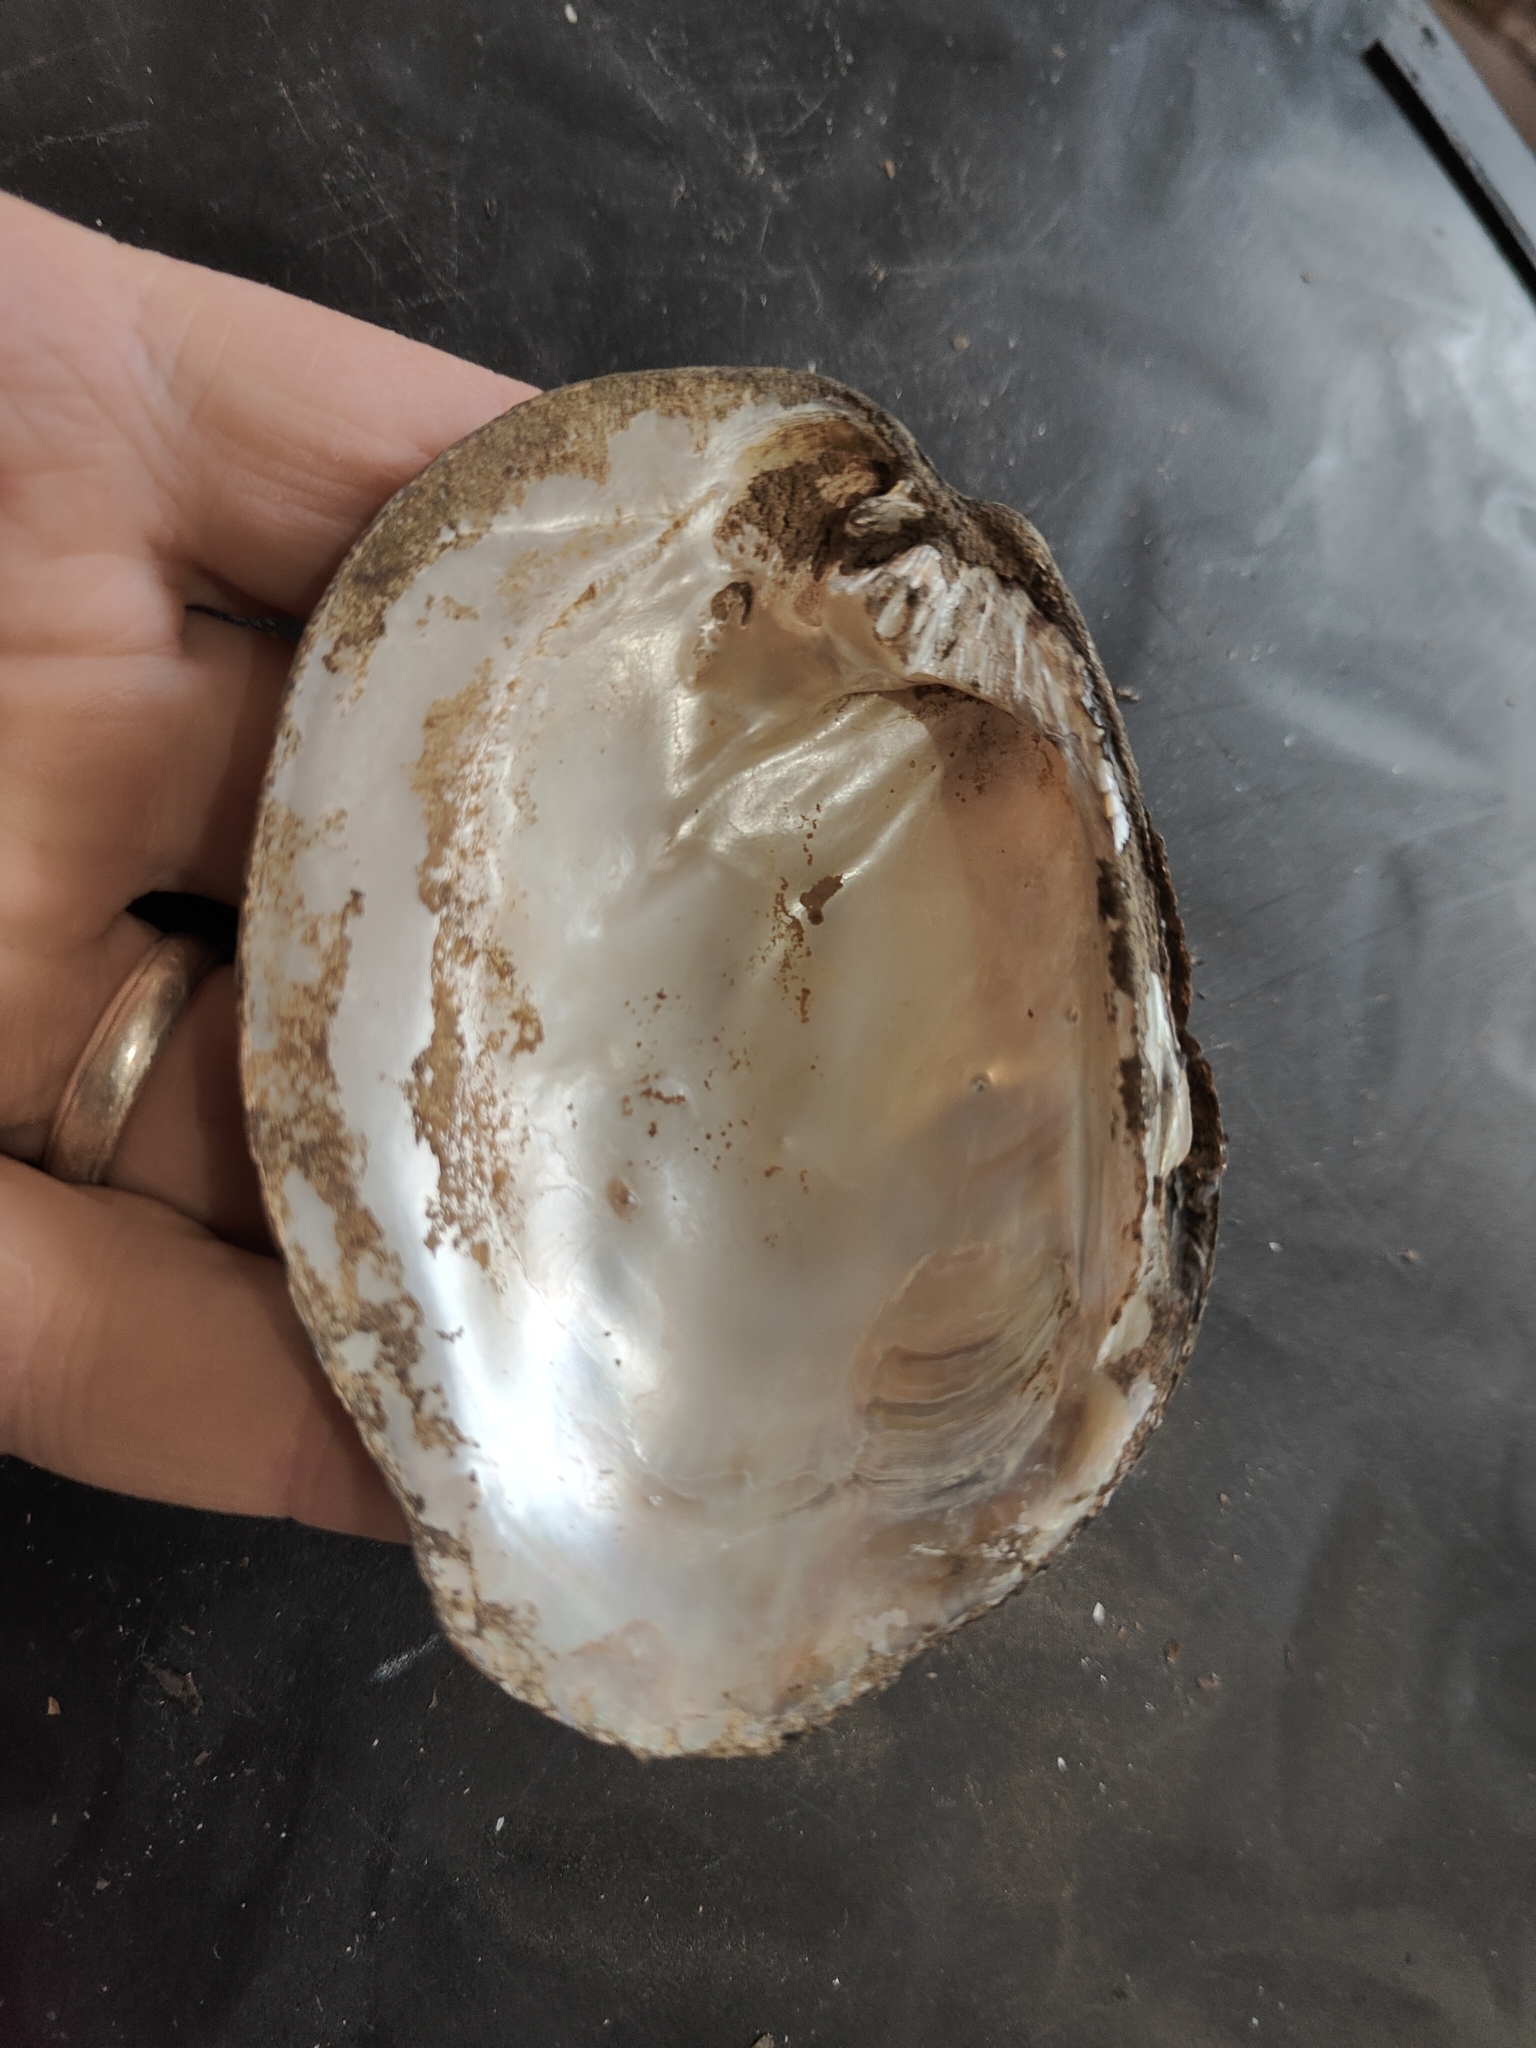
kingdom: Animalia
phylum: Mollusca
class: Bivalvia
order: Unionida
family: Unionidae
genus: Amblema
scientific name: Amblema plicata
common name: Threeridge
